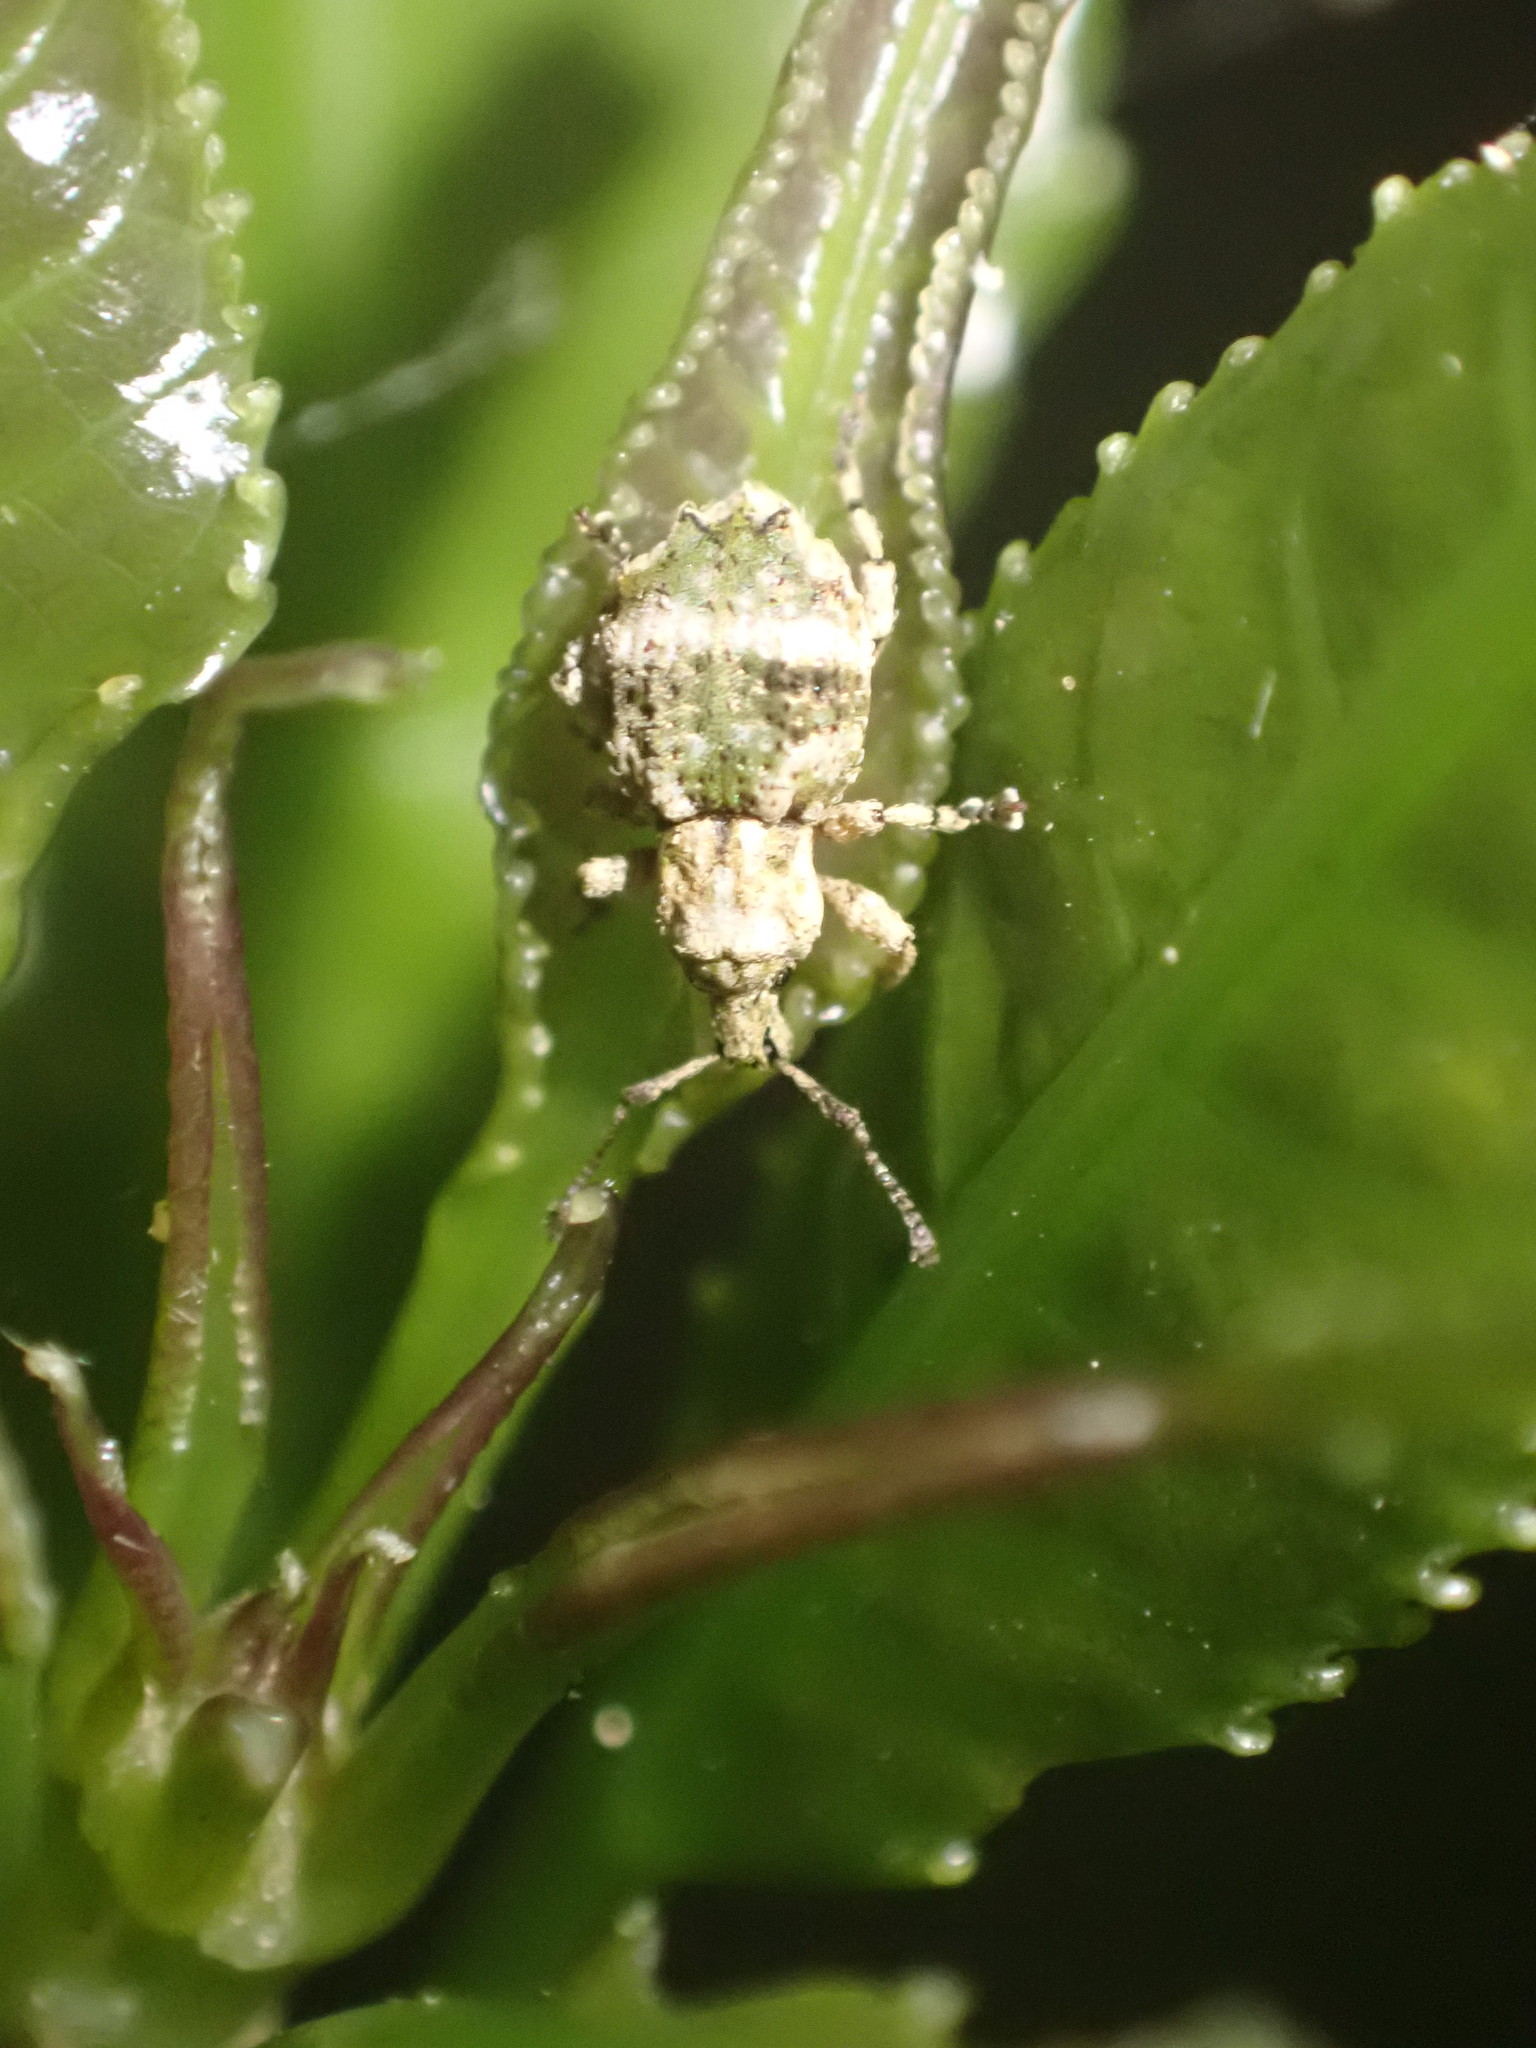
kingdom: Animalia
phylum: Arthropoda
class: Insecta
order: Coleoptera
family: Curculionidae
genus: Brachyolus
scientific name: Brachyolus punctatus
